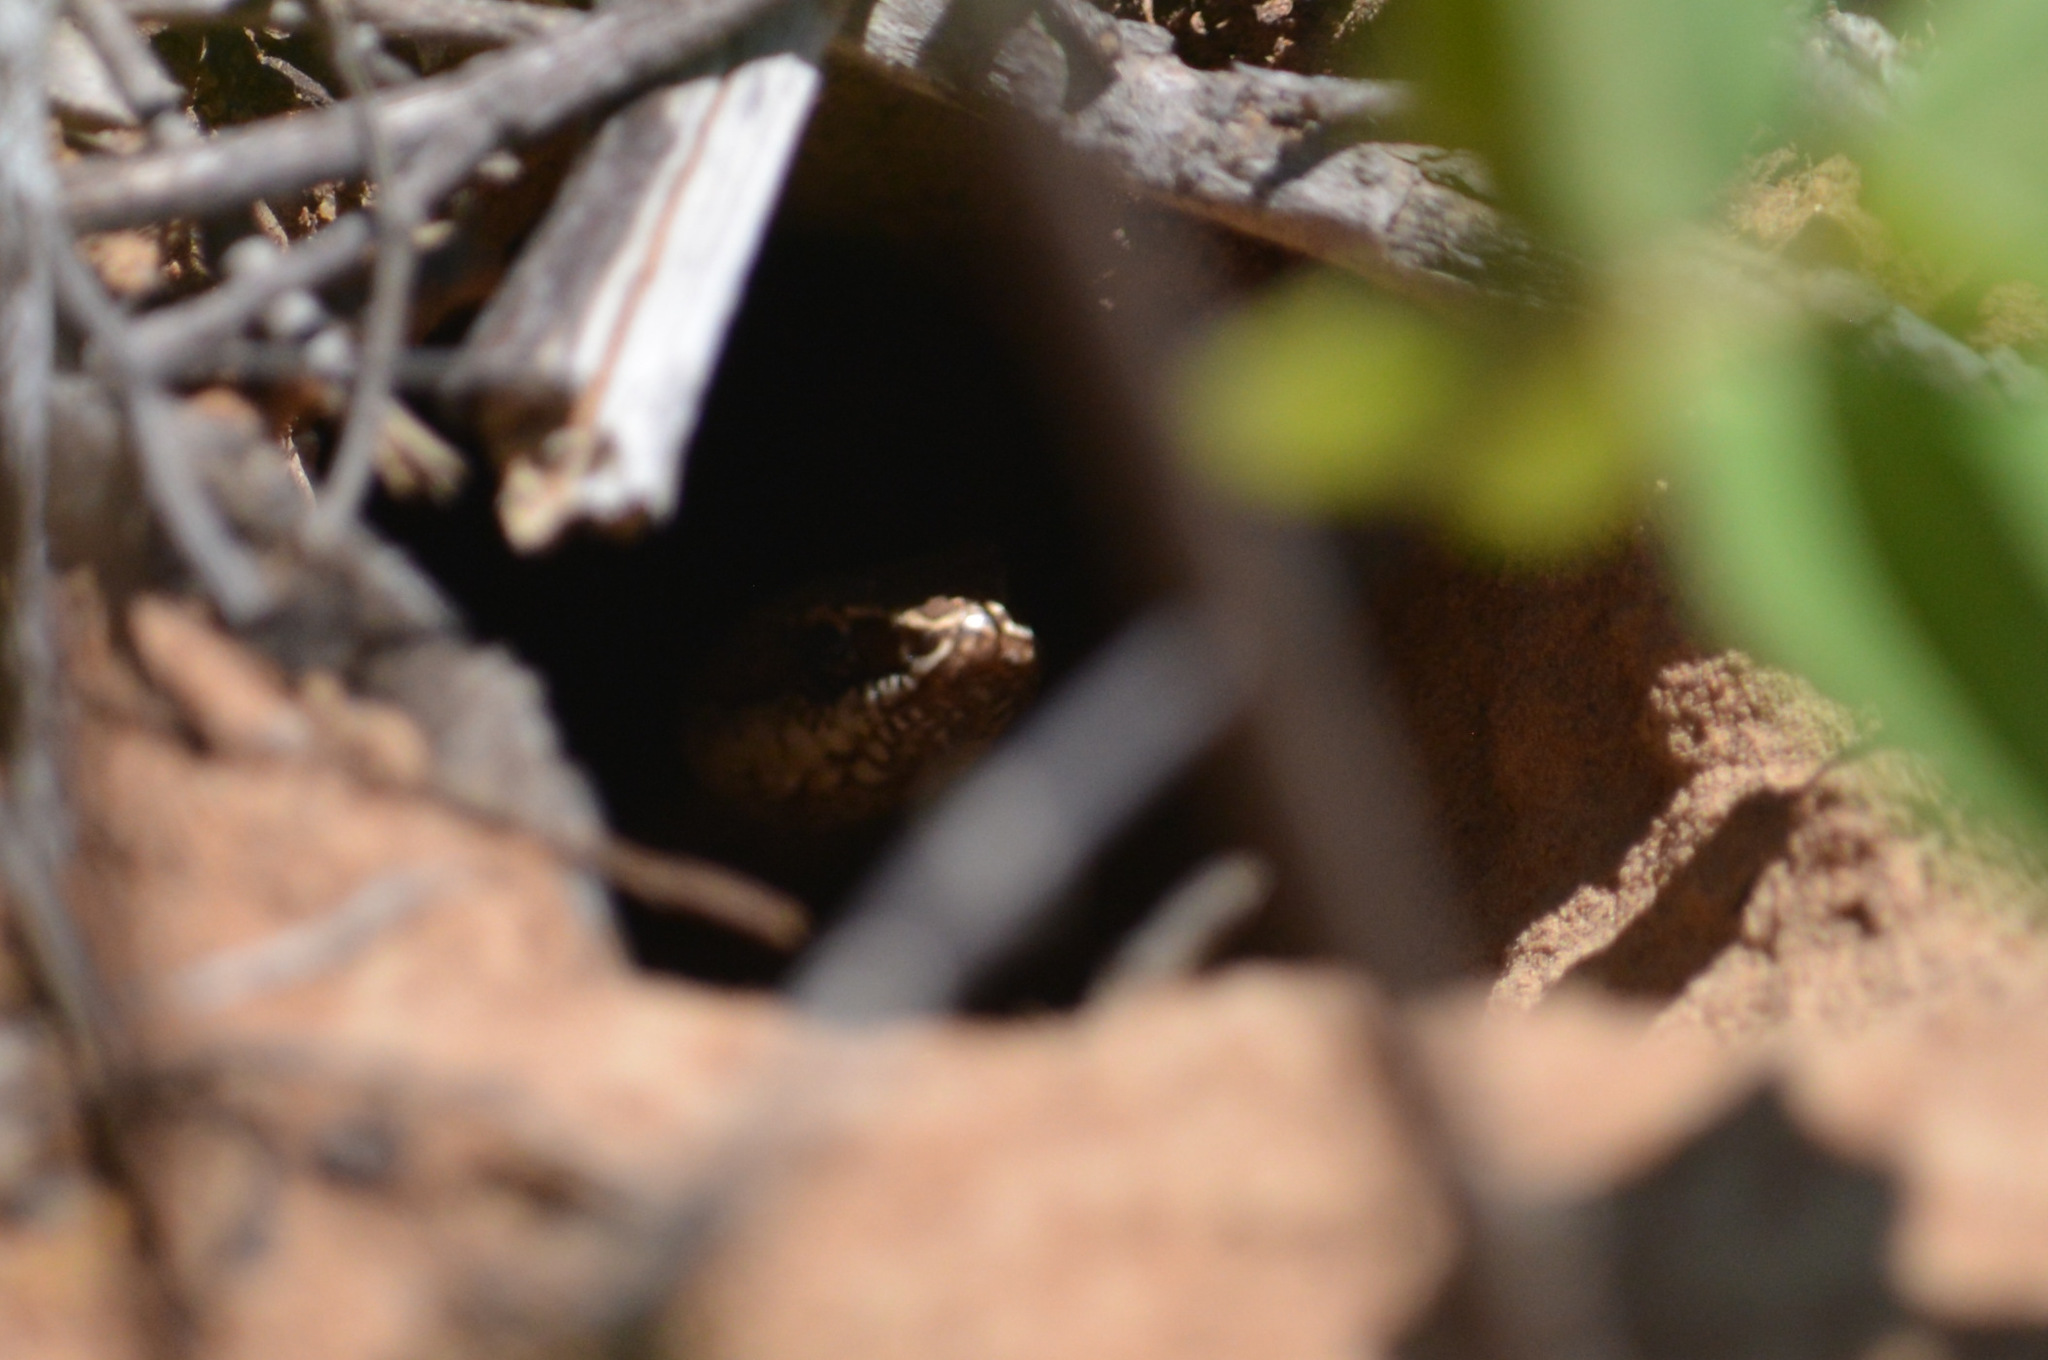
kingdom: Animalia
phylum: Chordata
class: Squamata
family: Colubridae
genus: Philodryas
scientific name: Philodryas nattereri
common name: Paraguay green racer
